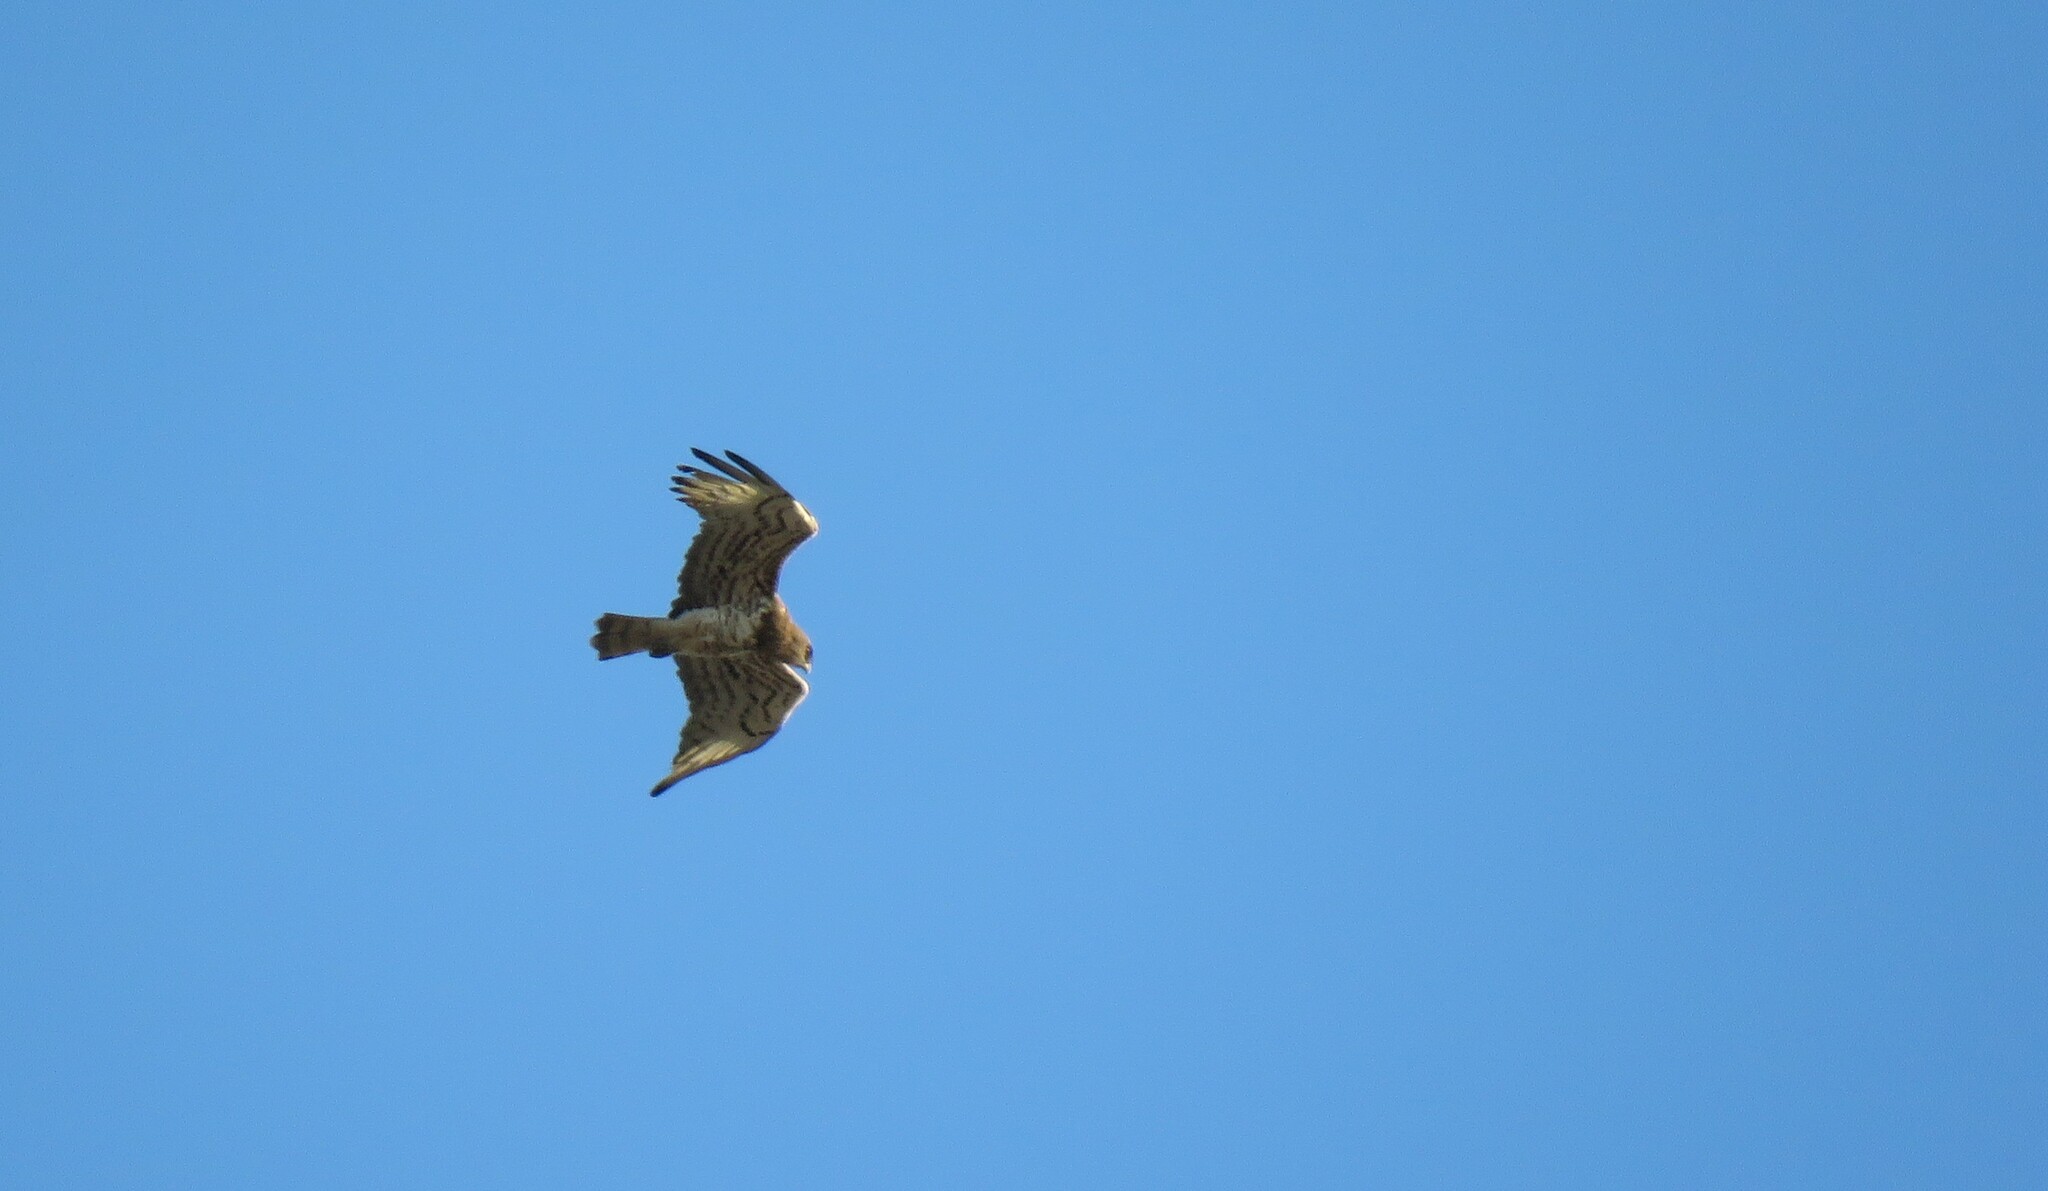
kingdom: Animalia
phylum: Chordata
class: Aves
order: Accipitriformes
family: Accipitridae
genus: Circaetus
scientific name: Circaetus gallicus
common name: Short-toed snake eagle
